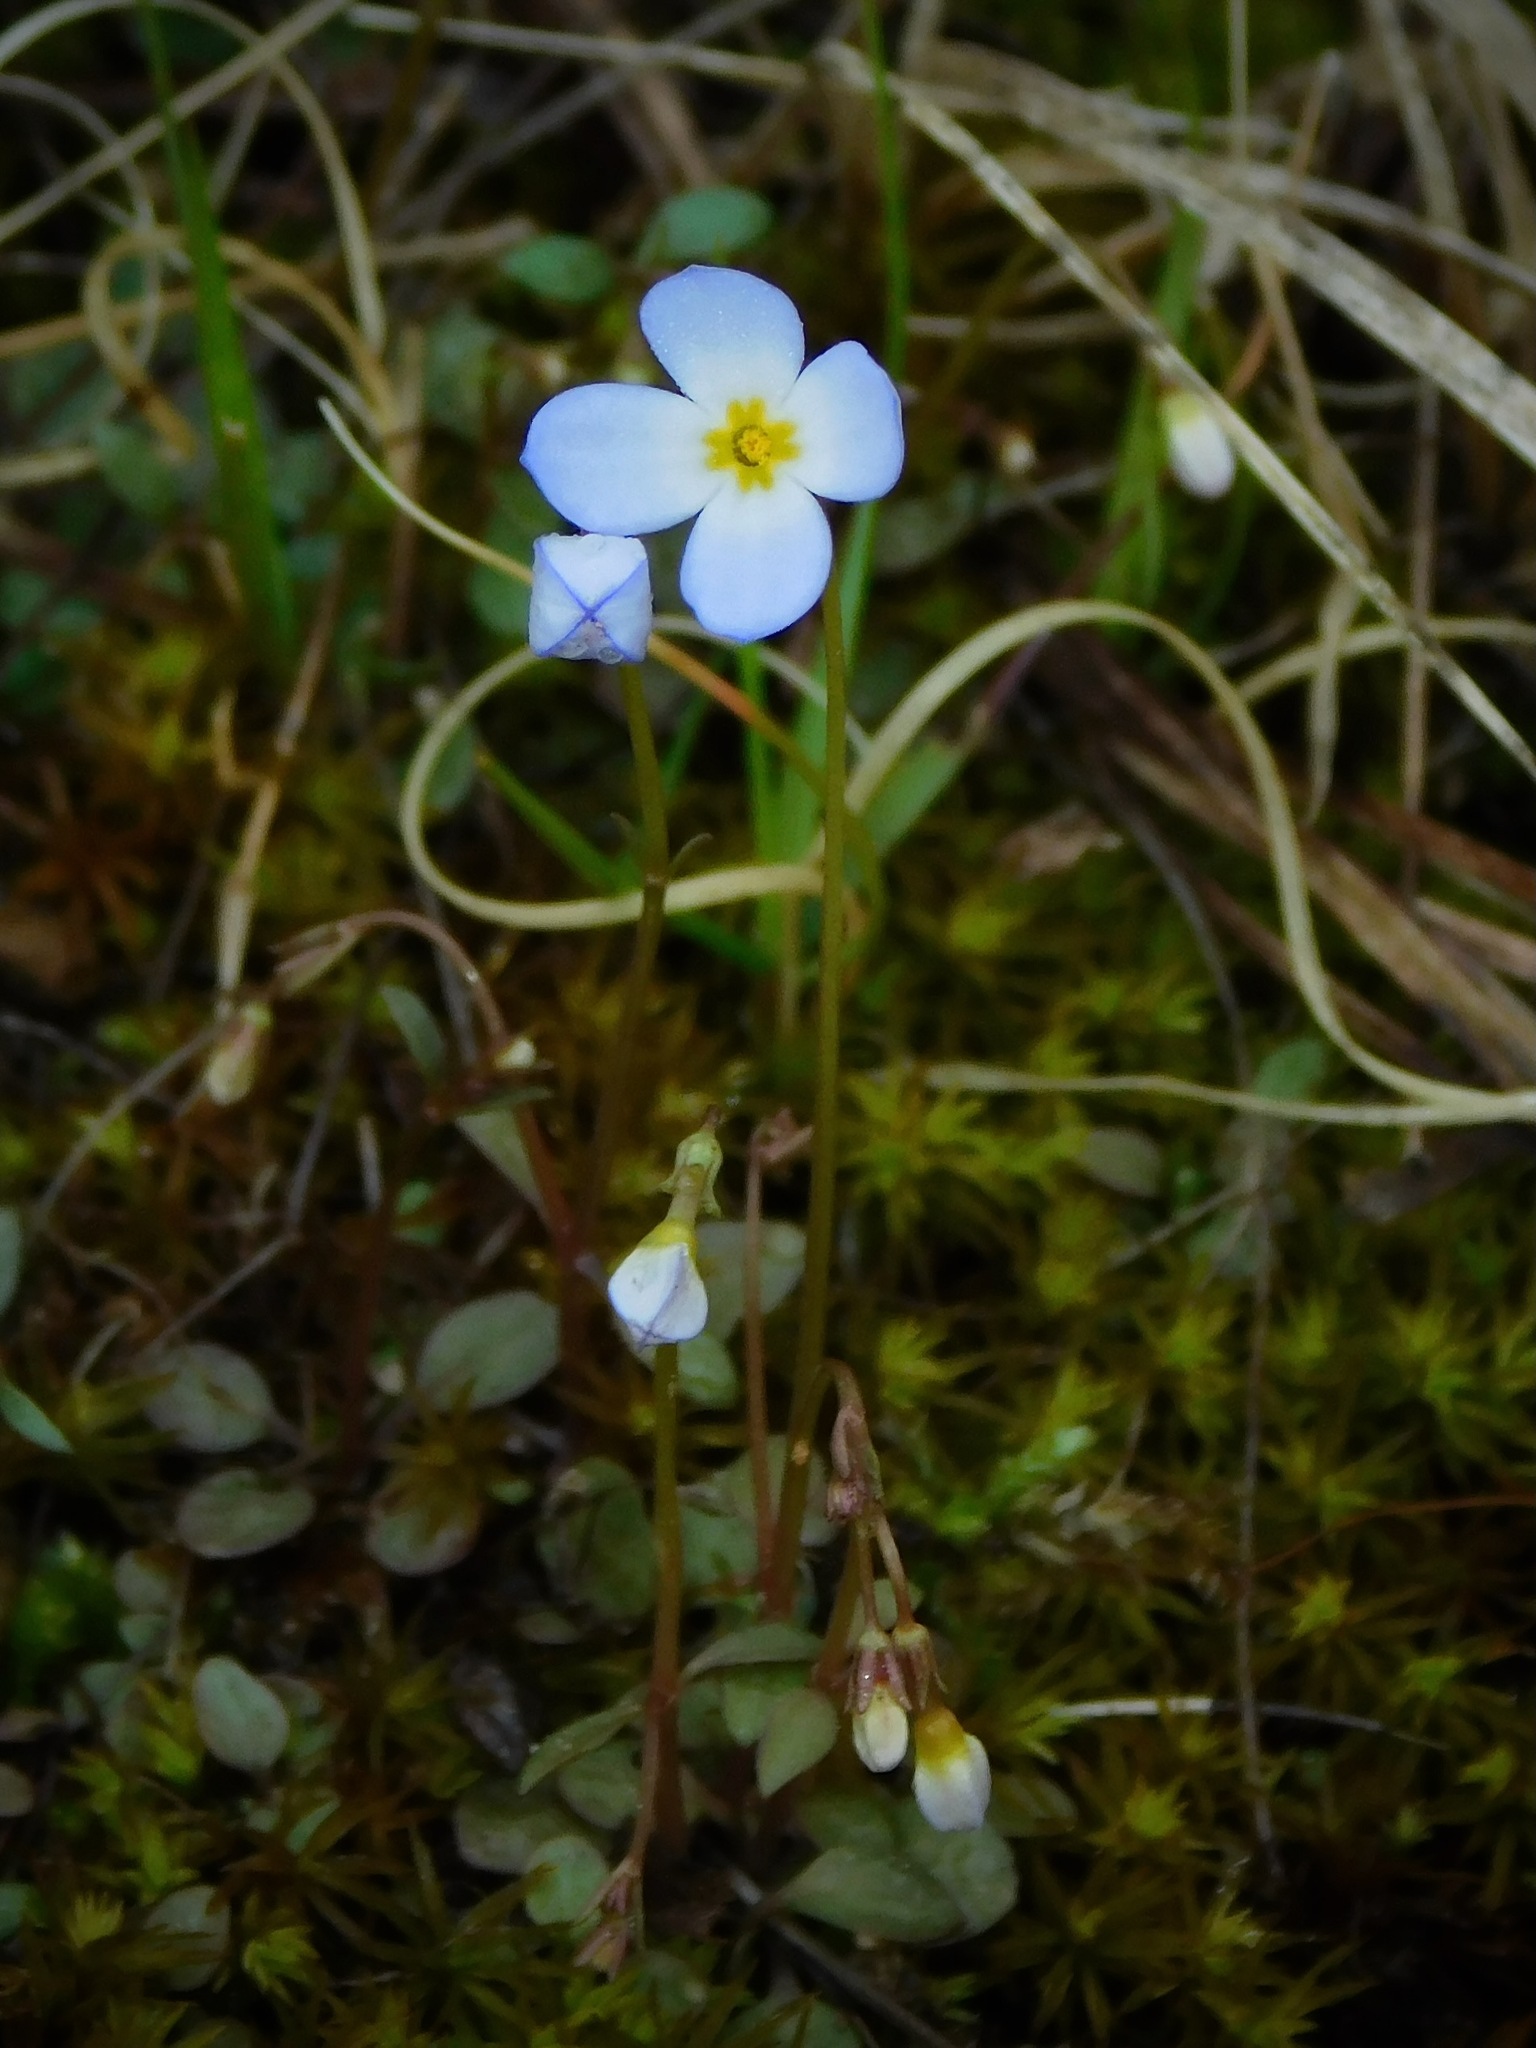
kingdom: Plantae
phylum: Tracheophyta
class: Magnoliopsida
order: Gentianales
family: Rubiaceae
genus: Houstonia
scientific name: Houstonia caerulea
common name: Bluets
